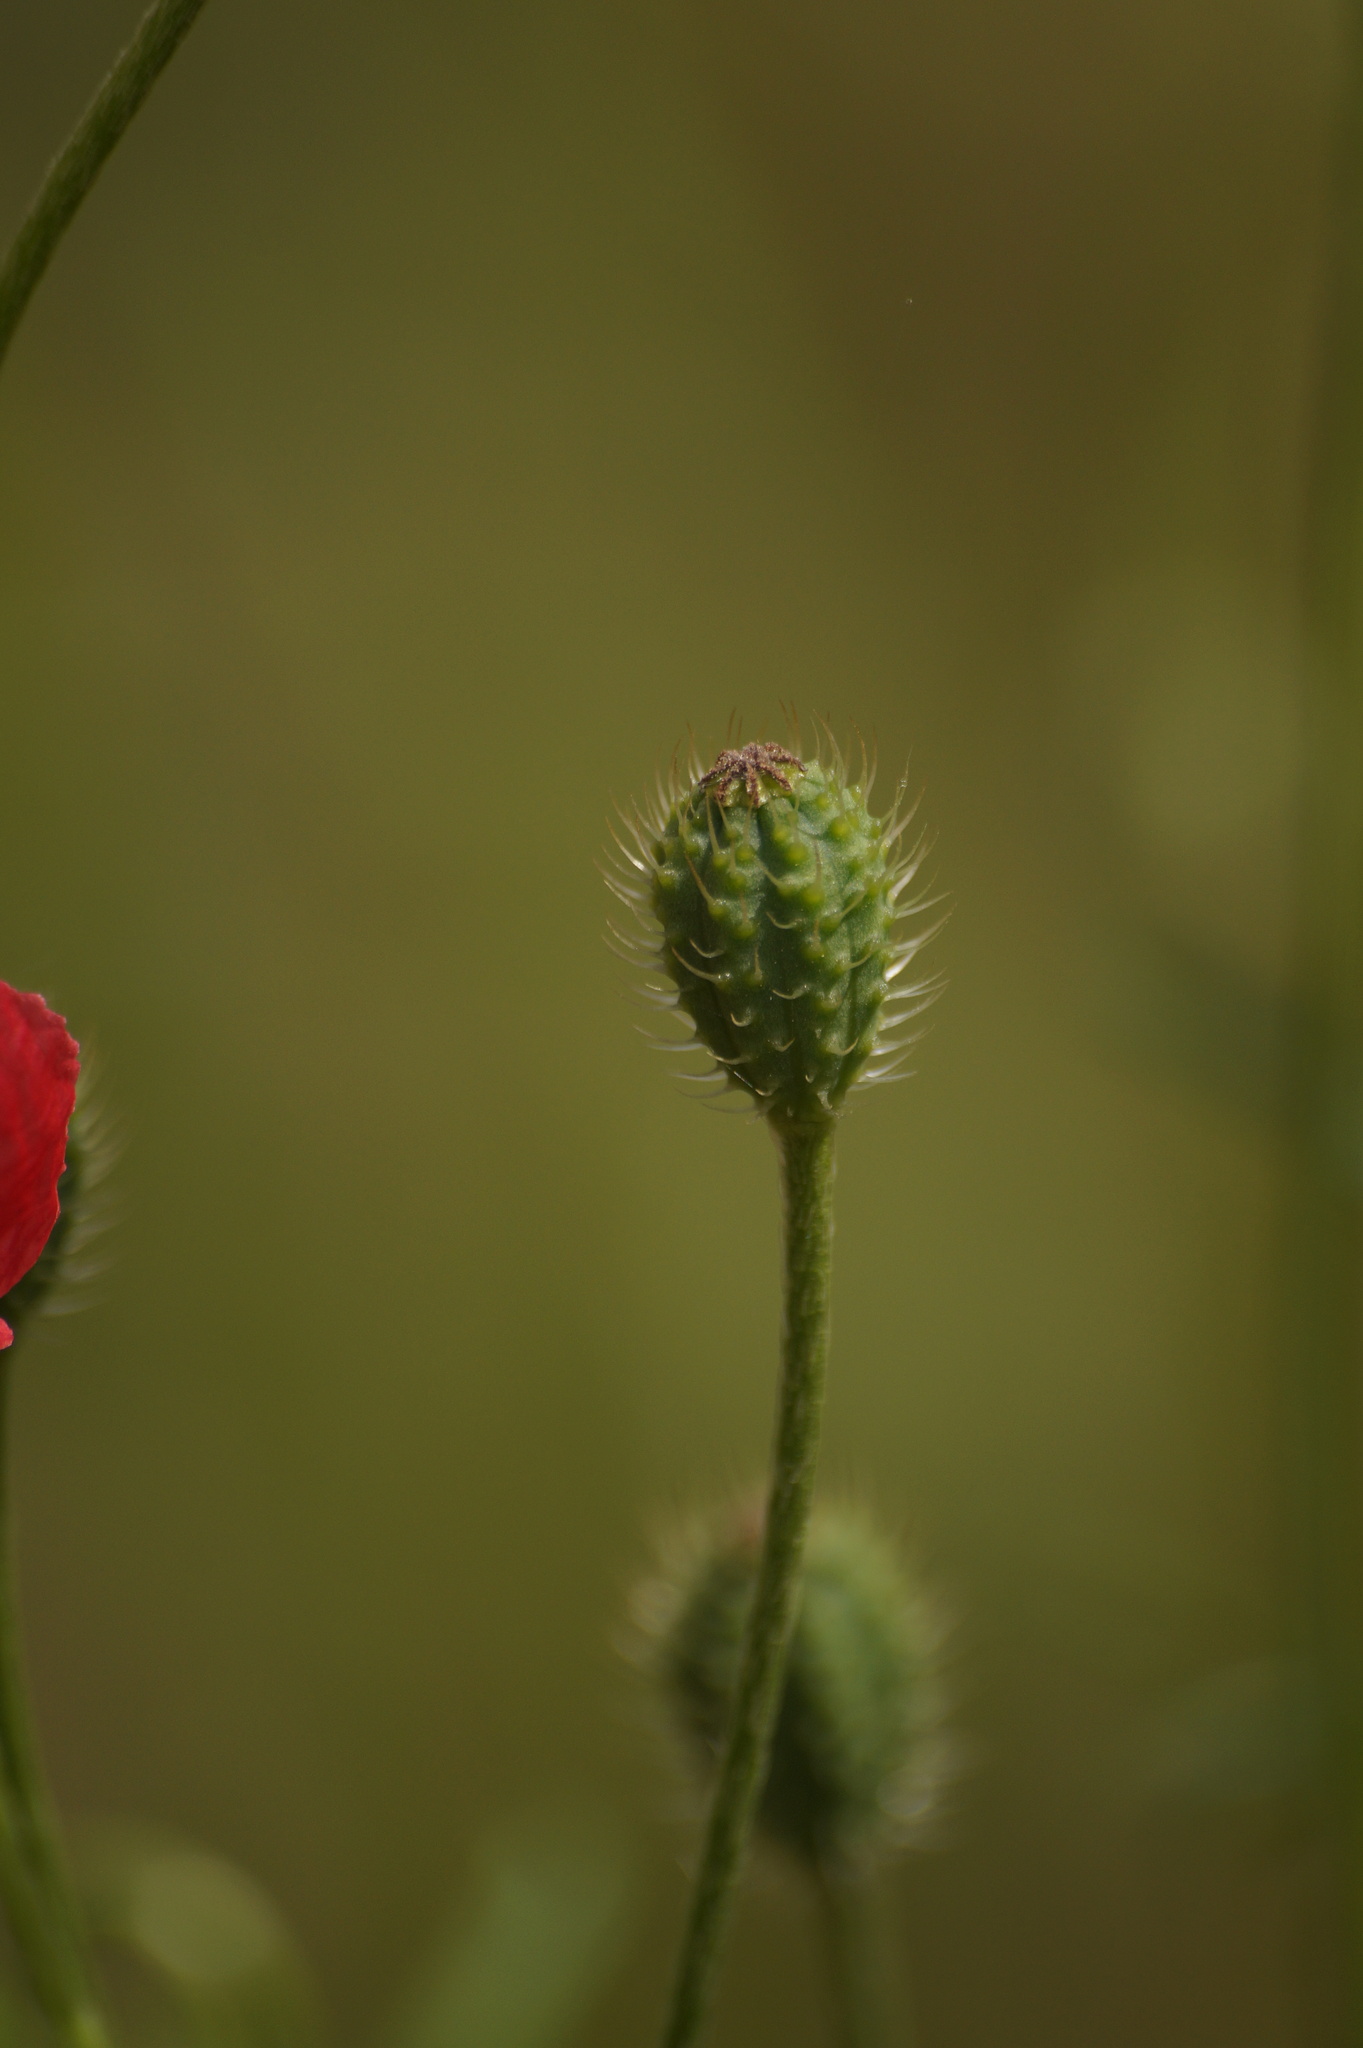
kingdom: Plantae
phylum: Tracheophyta
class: Magnoliopsida
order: Ranunculales
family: Papaveraceae
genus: Roemeria
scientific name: Roemeria hispida
